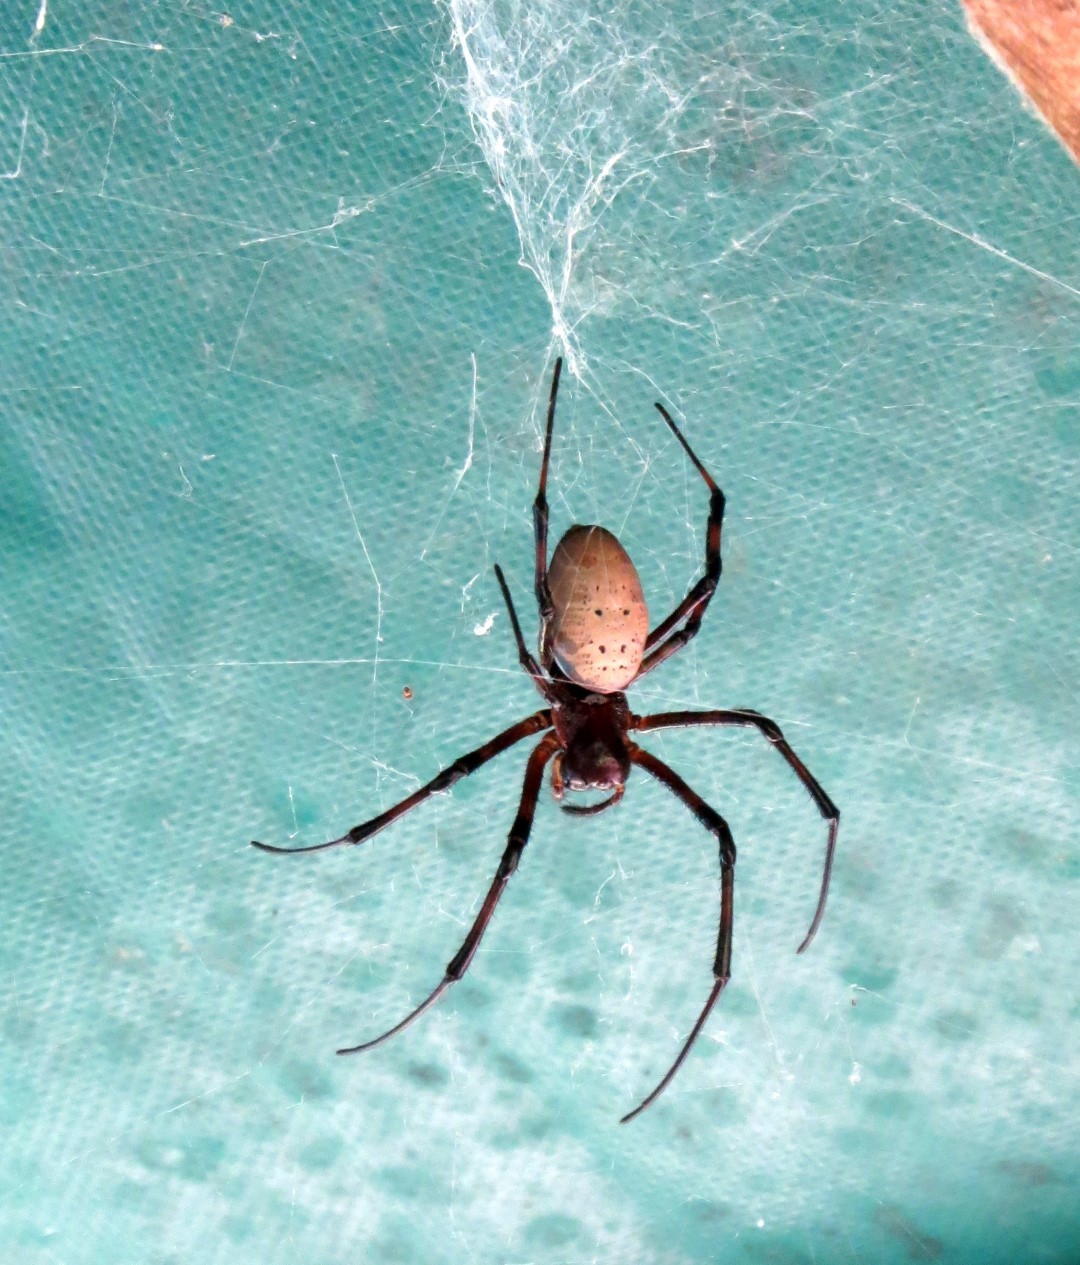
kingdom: Animalia
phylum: Arthropoda
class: Arachnida
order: Araneae
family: Araneidae
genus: Nephilingis
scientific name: Nephilingis livida
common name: Madagascar hermit spider
